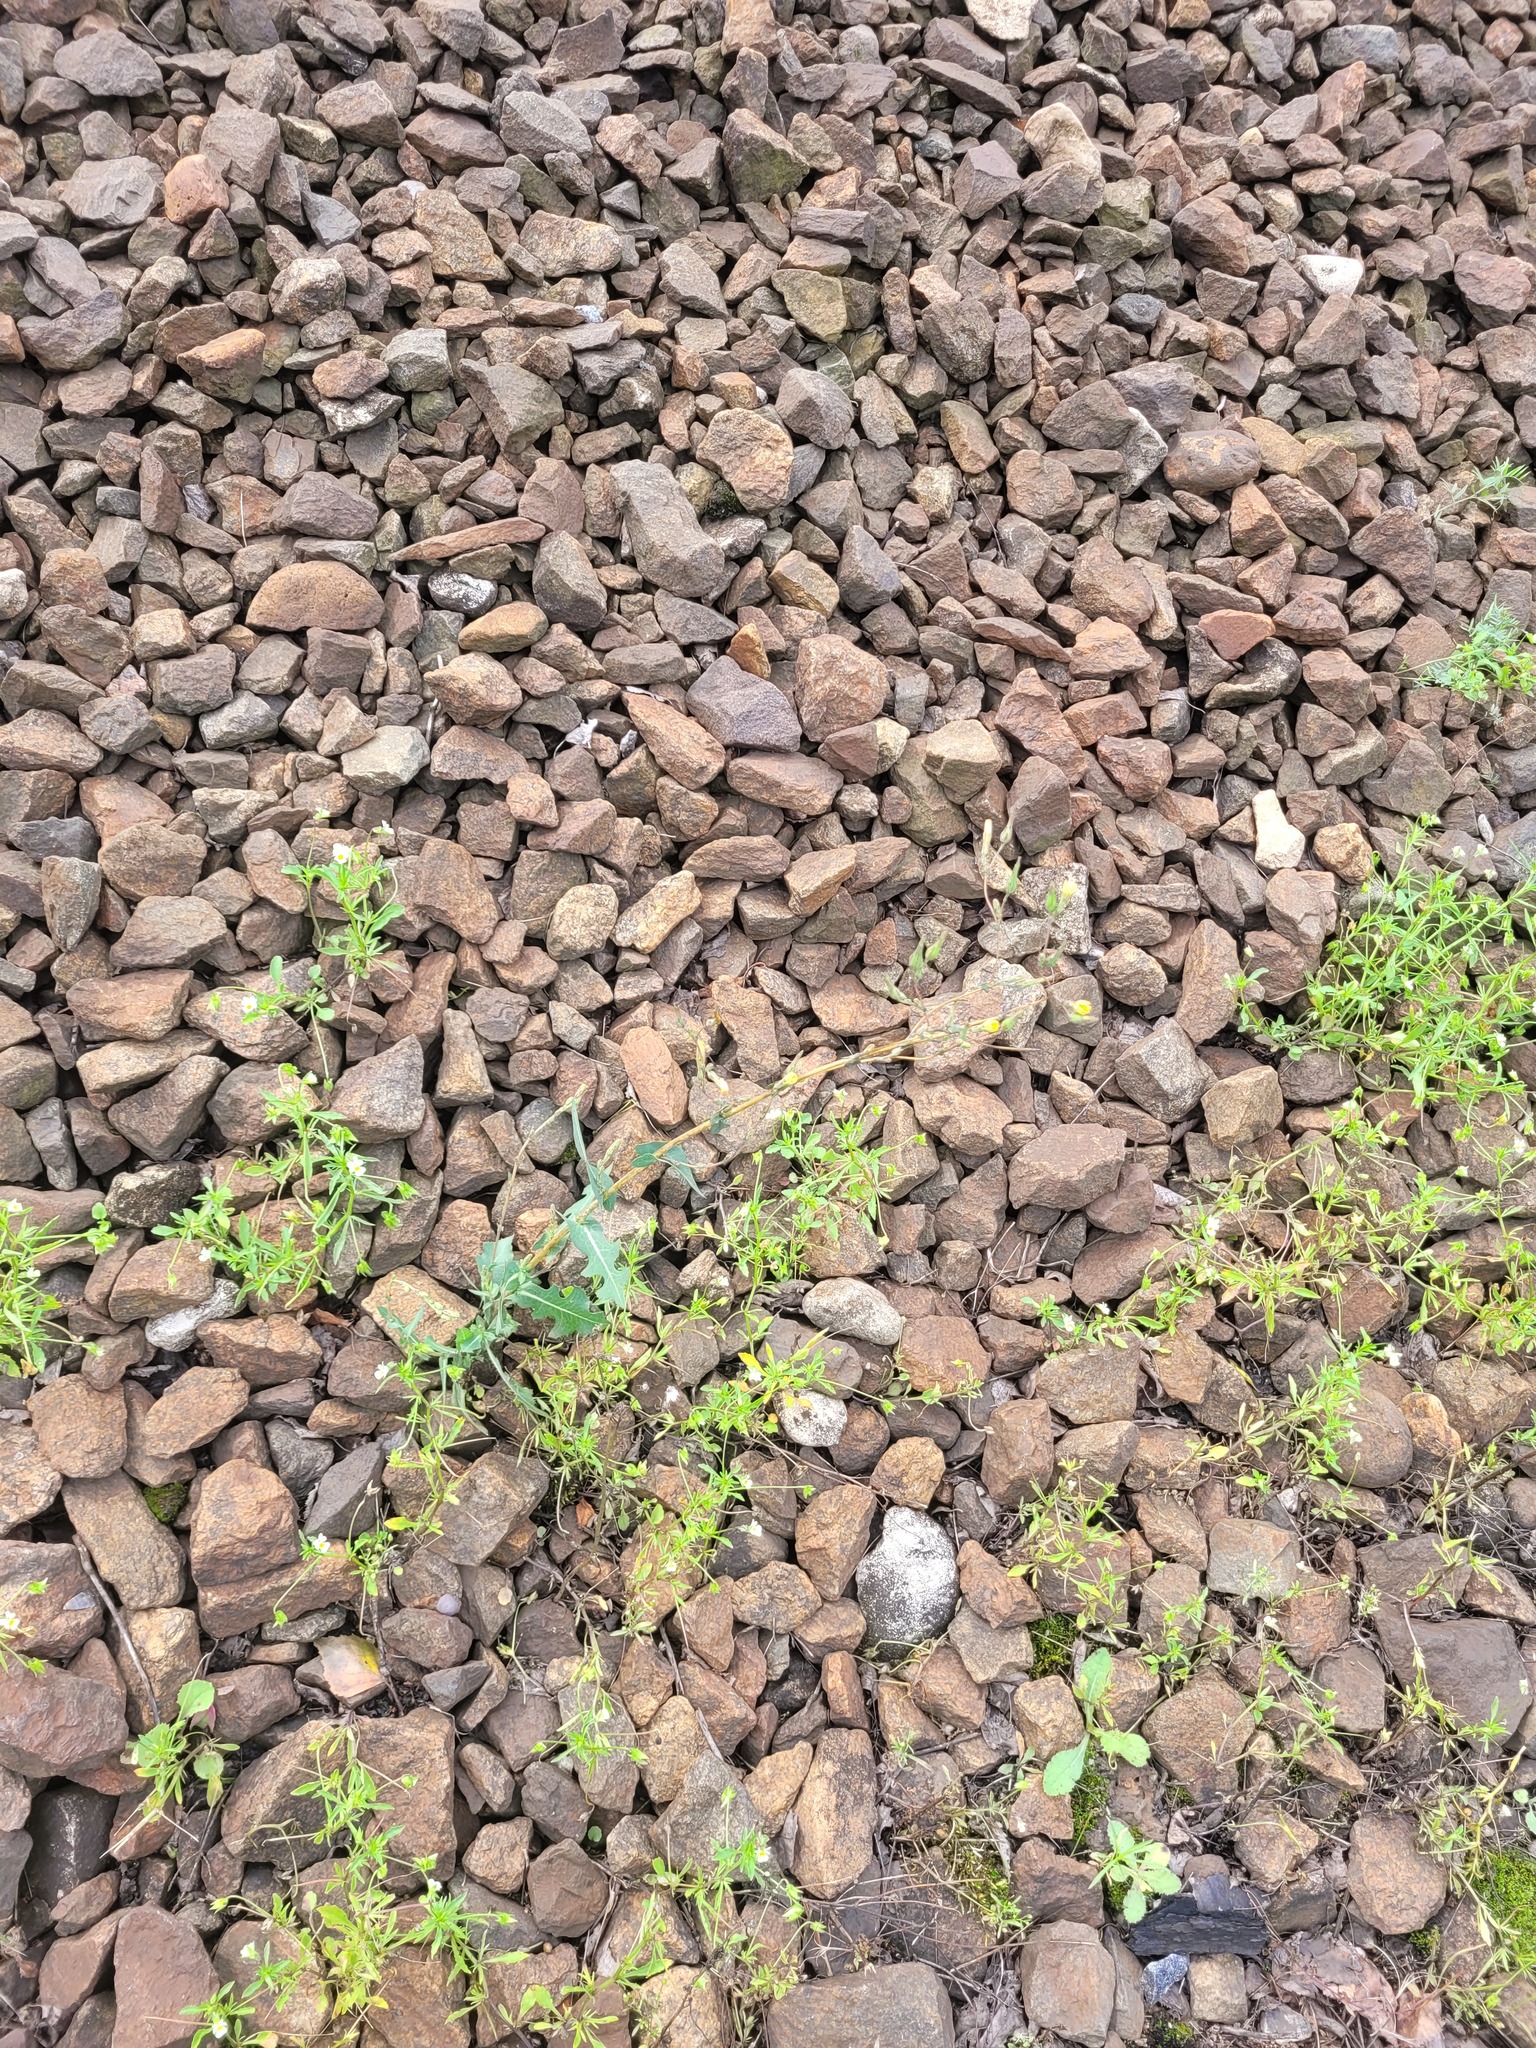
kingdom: Plantae
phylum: Tracheophyta
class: Magnoliopsida
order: Asterales
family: Asteraceae
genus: Lactuca
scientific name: Lactuca serriola
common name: Prickly lettuce
